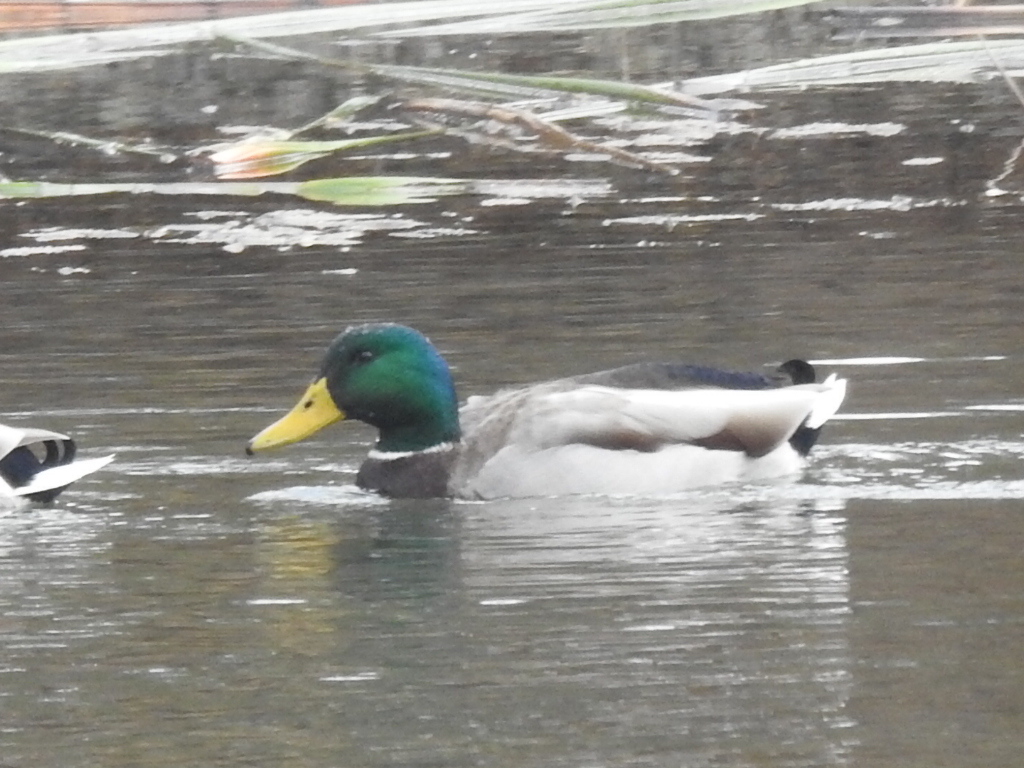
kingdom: Animalia
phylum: Chordata
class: Aves
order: Anseriformes
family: Anatidae
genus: Anas
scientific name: Anas platyrhynchos
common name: Mallard
